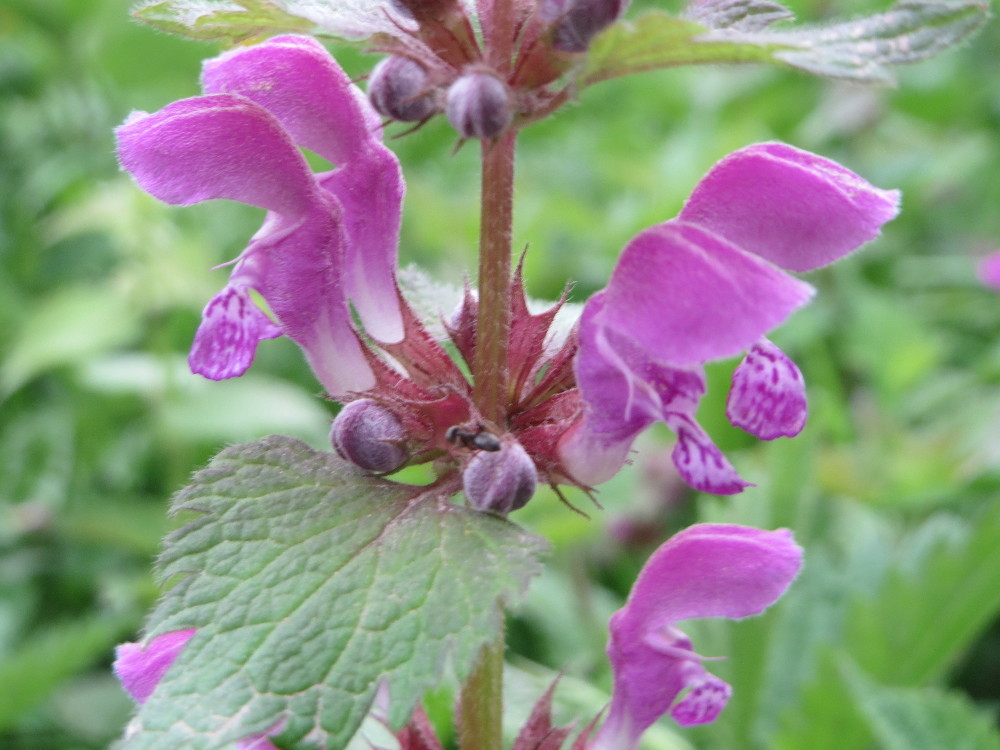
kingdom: Plantae
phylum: Tracheophyta
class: Magnoliopsida
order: Lamiales
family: Lamiaceae
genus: Lamium
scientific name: Lamium maculatum
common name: Spotted dead-nettle
